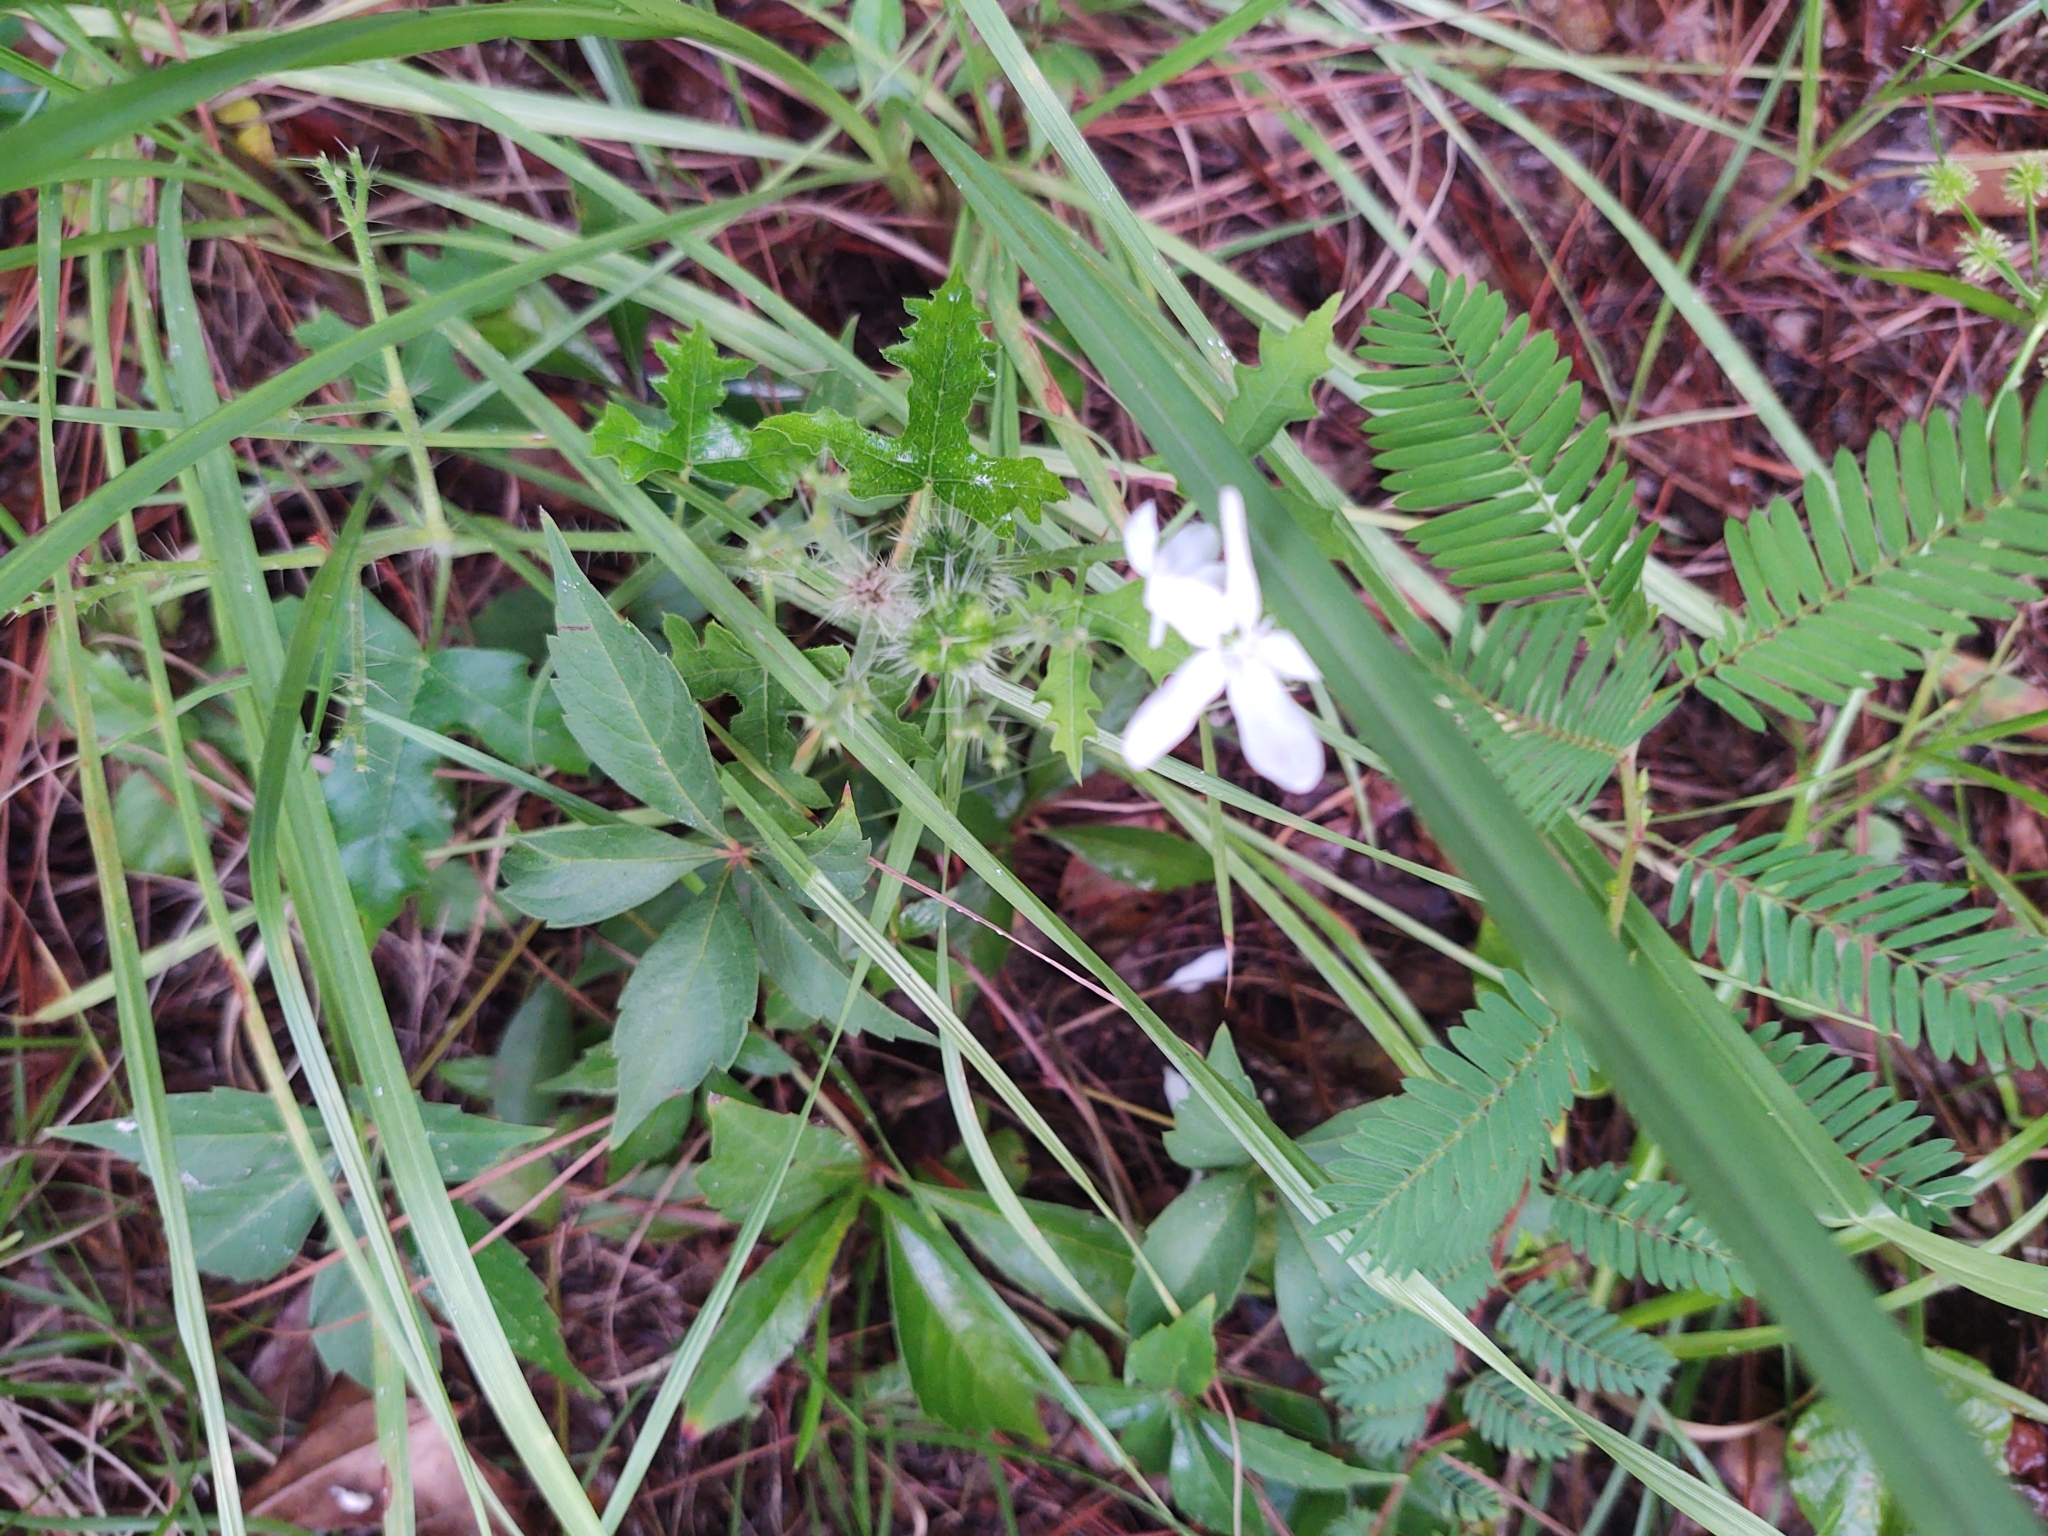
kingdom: Plantae
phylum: Tracheophyta
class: Magnoliopsida
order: Malpighiales
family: Euphorbiaceae
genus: Cnidoscolus
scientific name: Cnidoscolus stimulosus
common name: Bull-nettle
